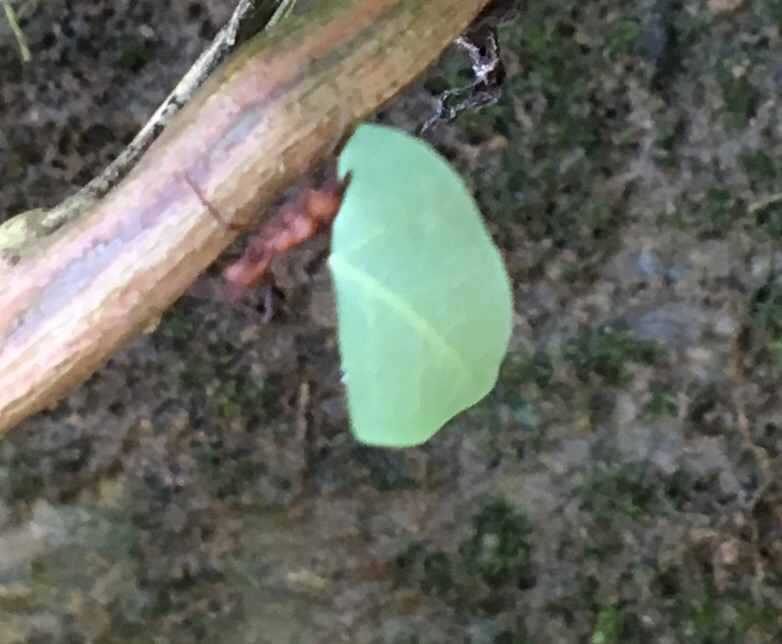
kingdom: Animalia
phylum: Arthropoda
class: Insecta
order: Hymenoptera
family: Formicidae
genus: Acromyrmex
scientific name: Acromyrmex octospinosus
